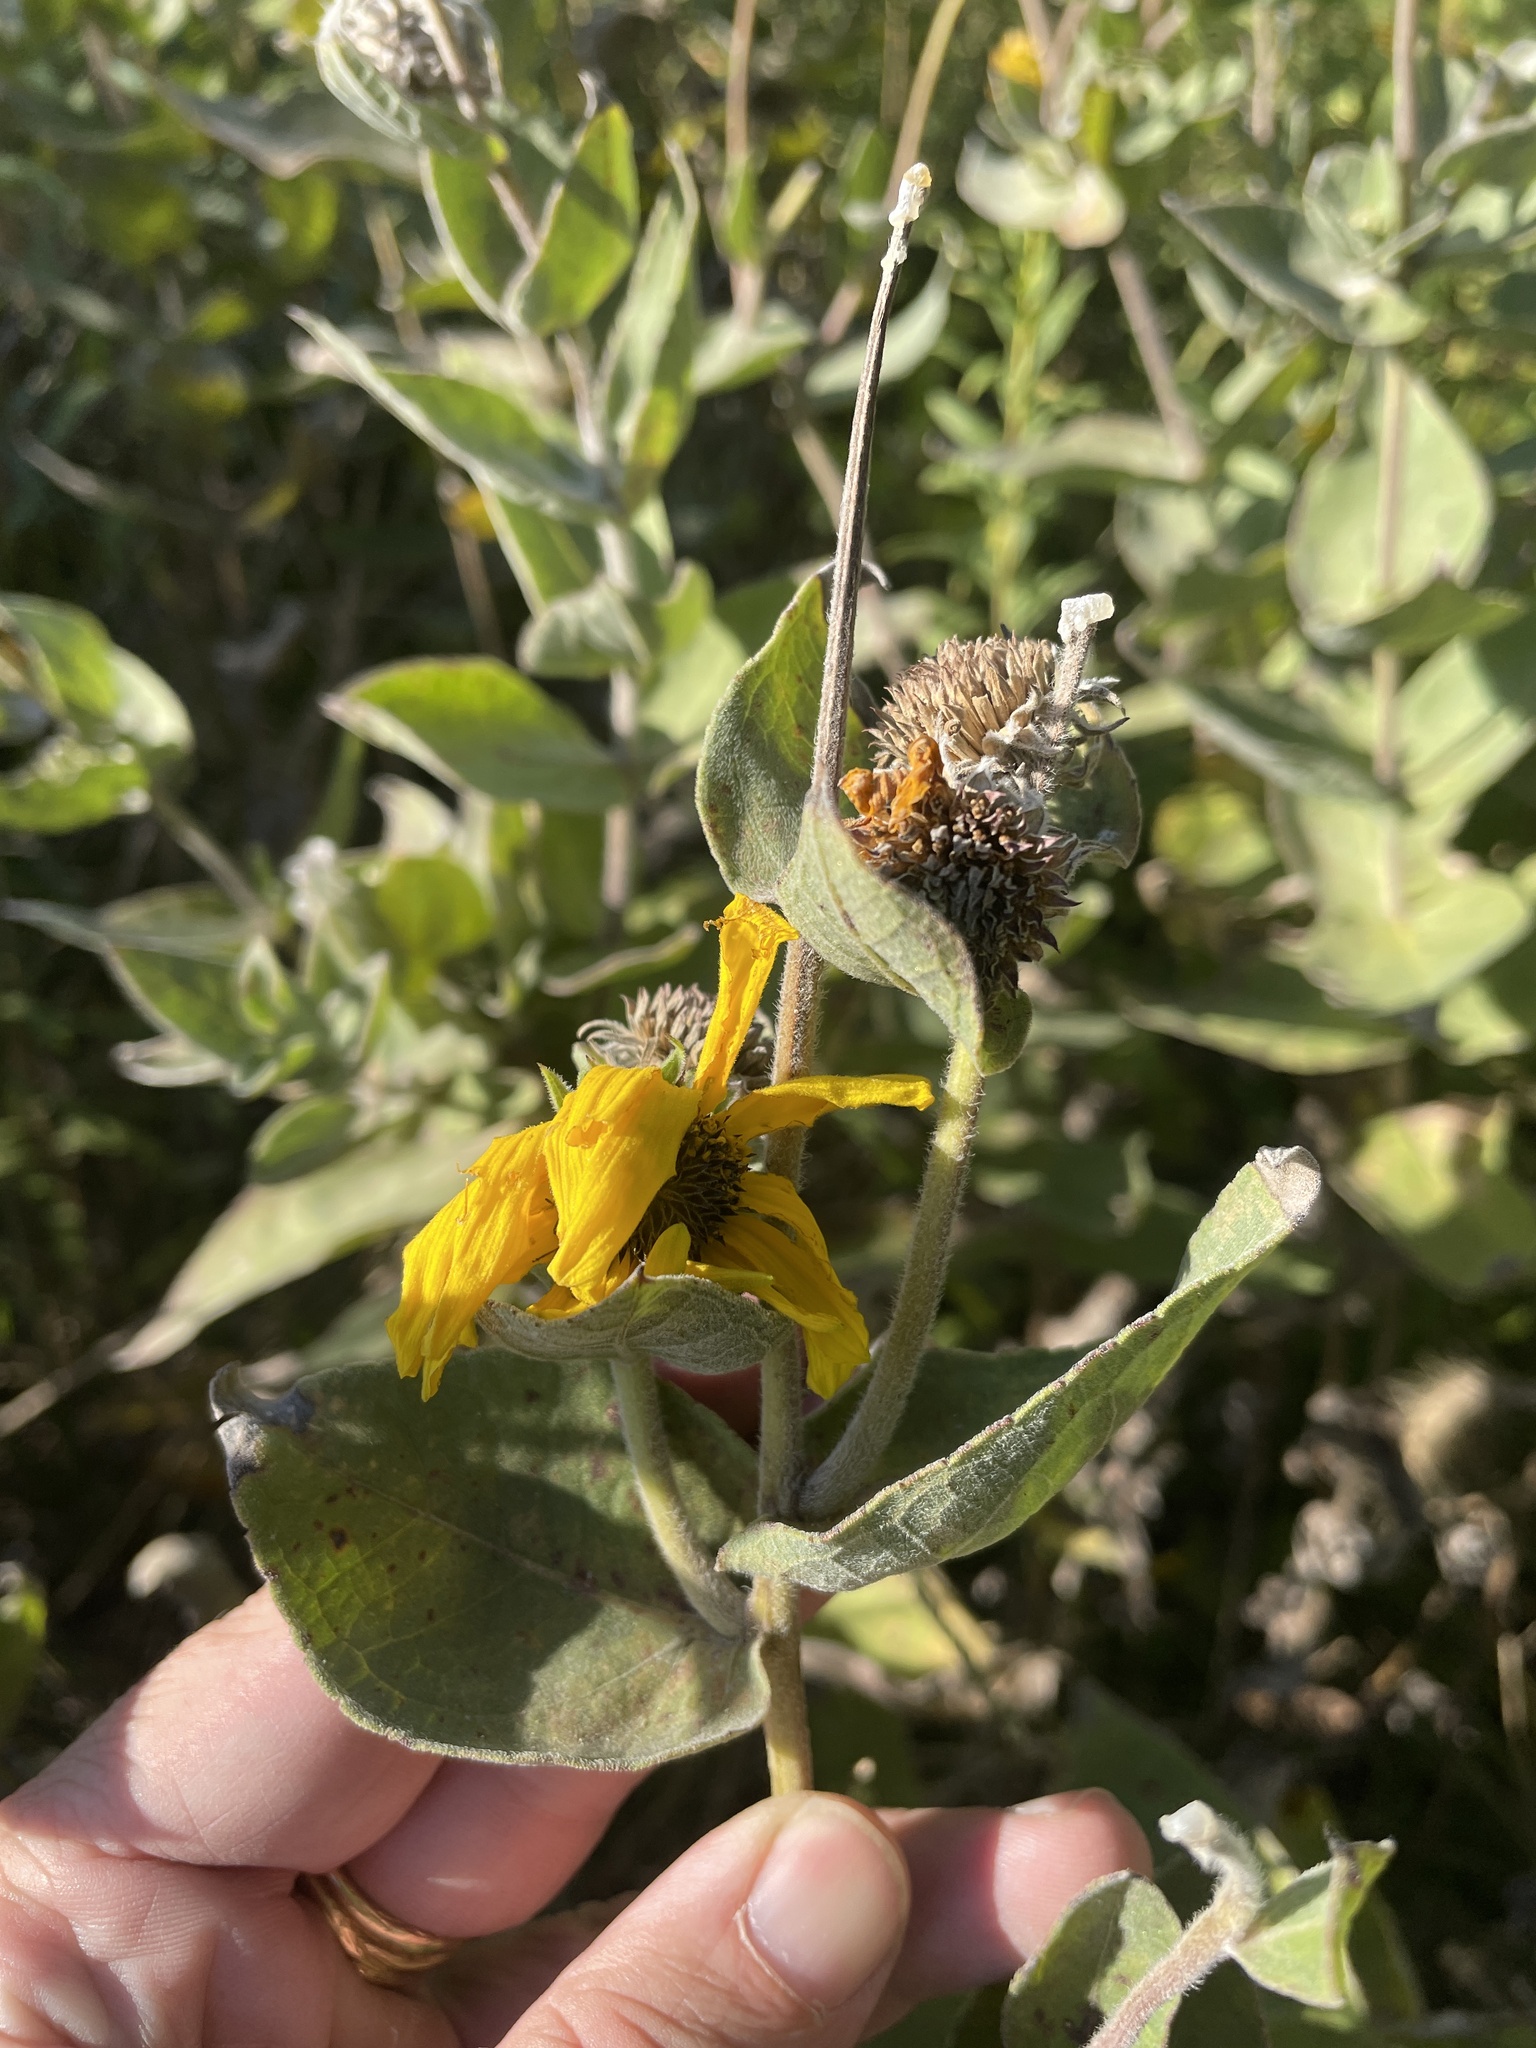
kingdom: Plantae
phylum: Tracheophyta
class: Magnoliopsida
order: Asterales
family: Asteraceae
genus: Helianthus
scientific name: Helianthus mollis
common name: Ashy sunflower
